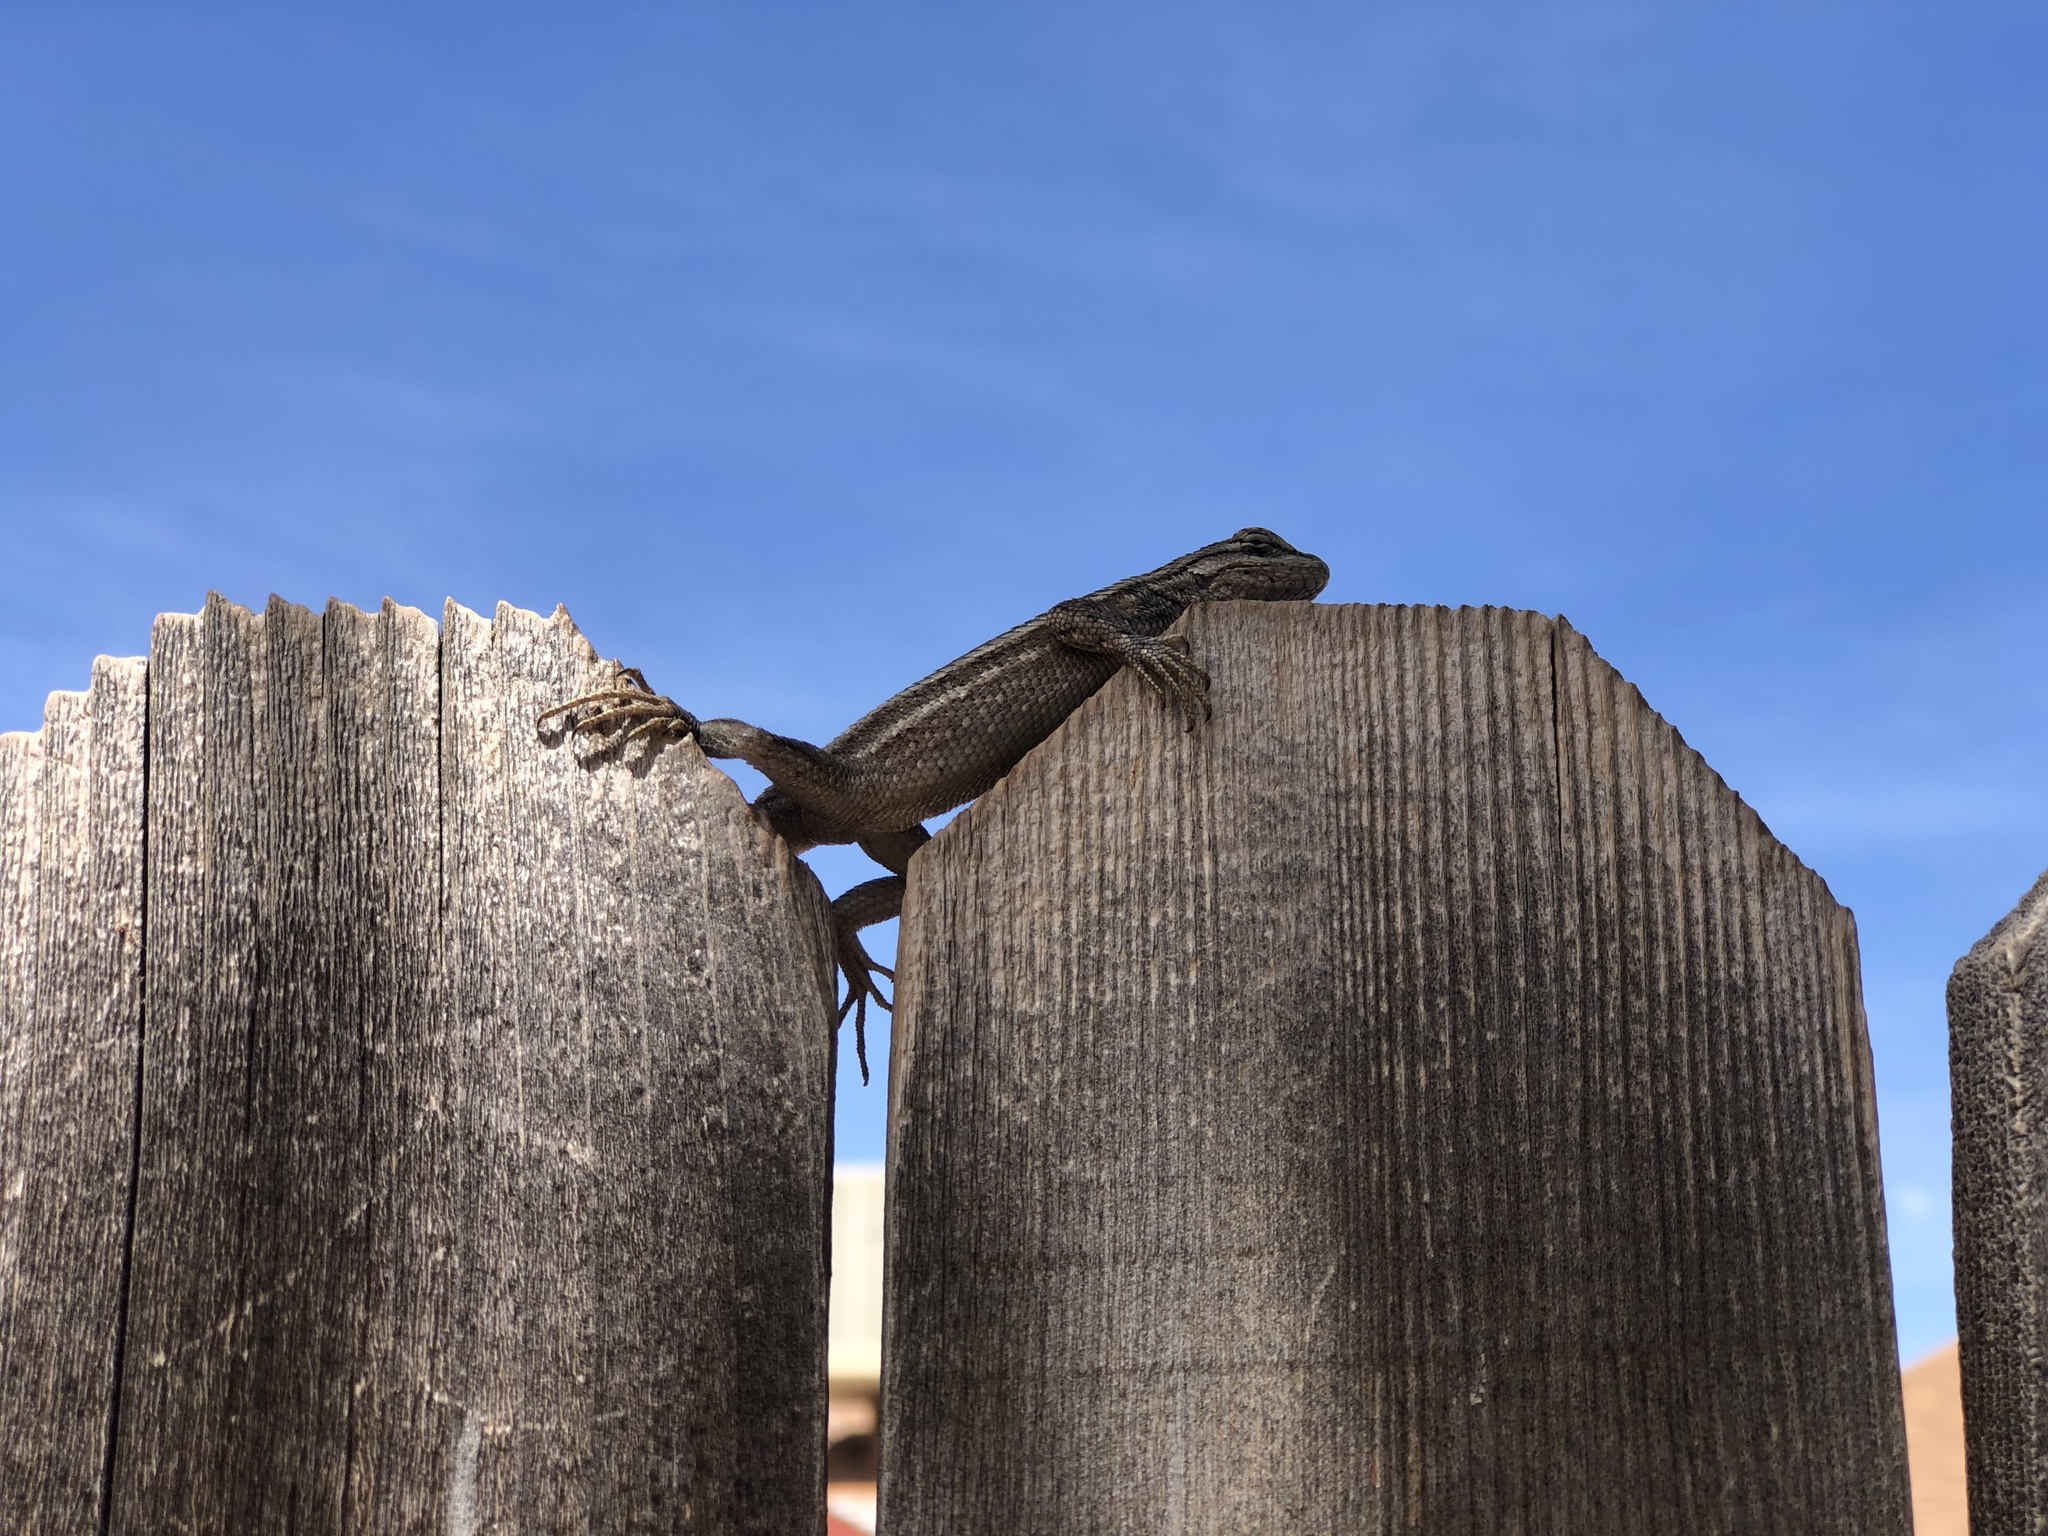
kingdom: Animalia
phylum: Chordata
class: Squamata
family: Phrynosomatidae
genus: Sceloporus
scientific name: Sceloporus cowlesi
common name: White sands prairie lizard
